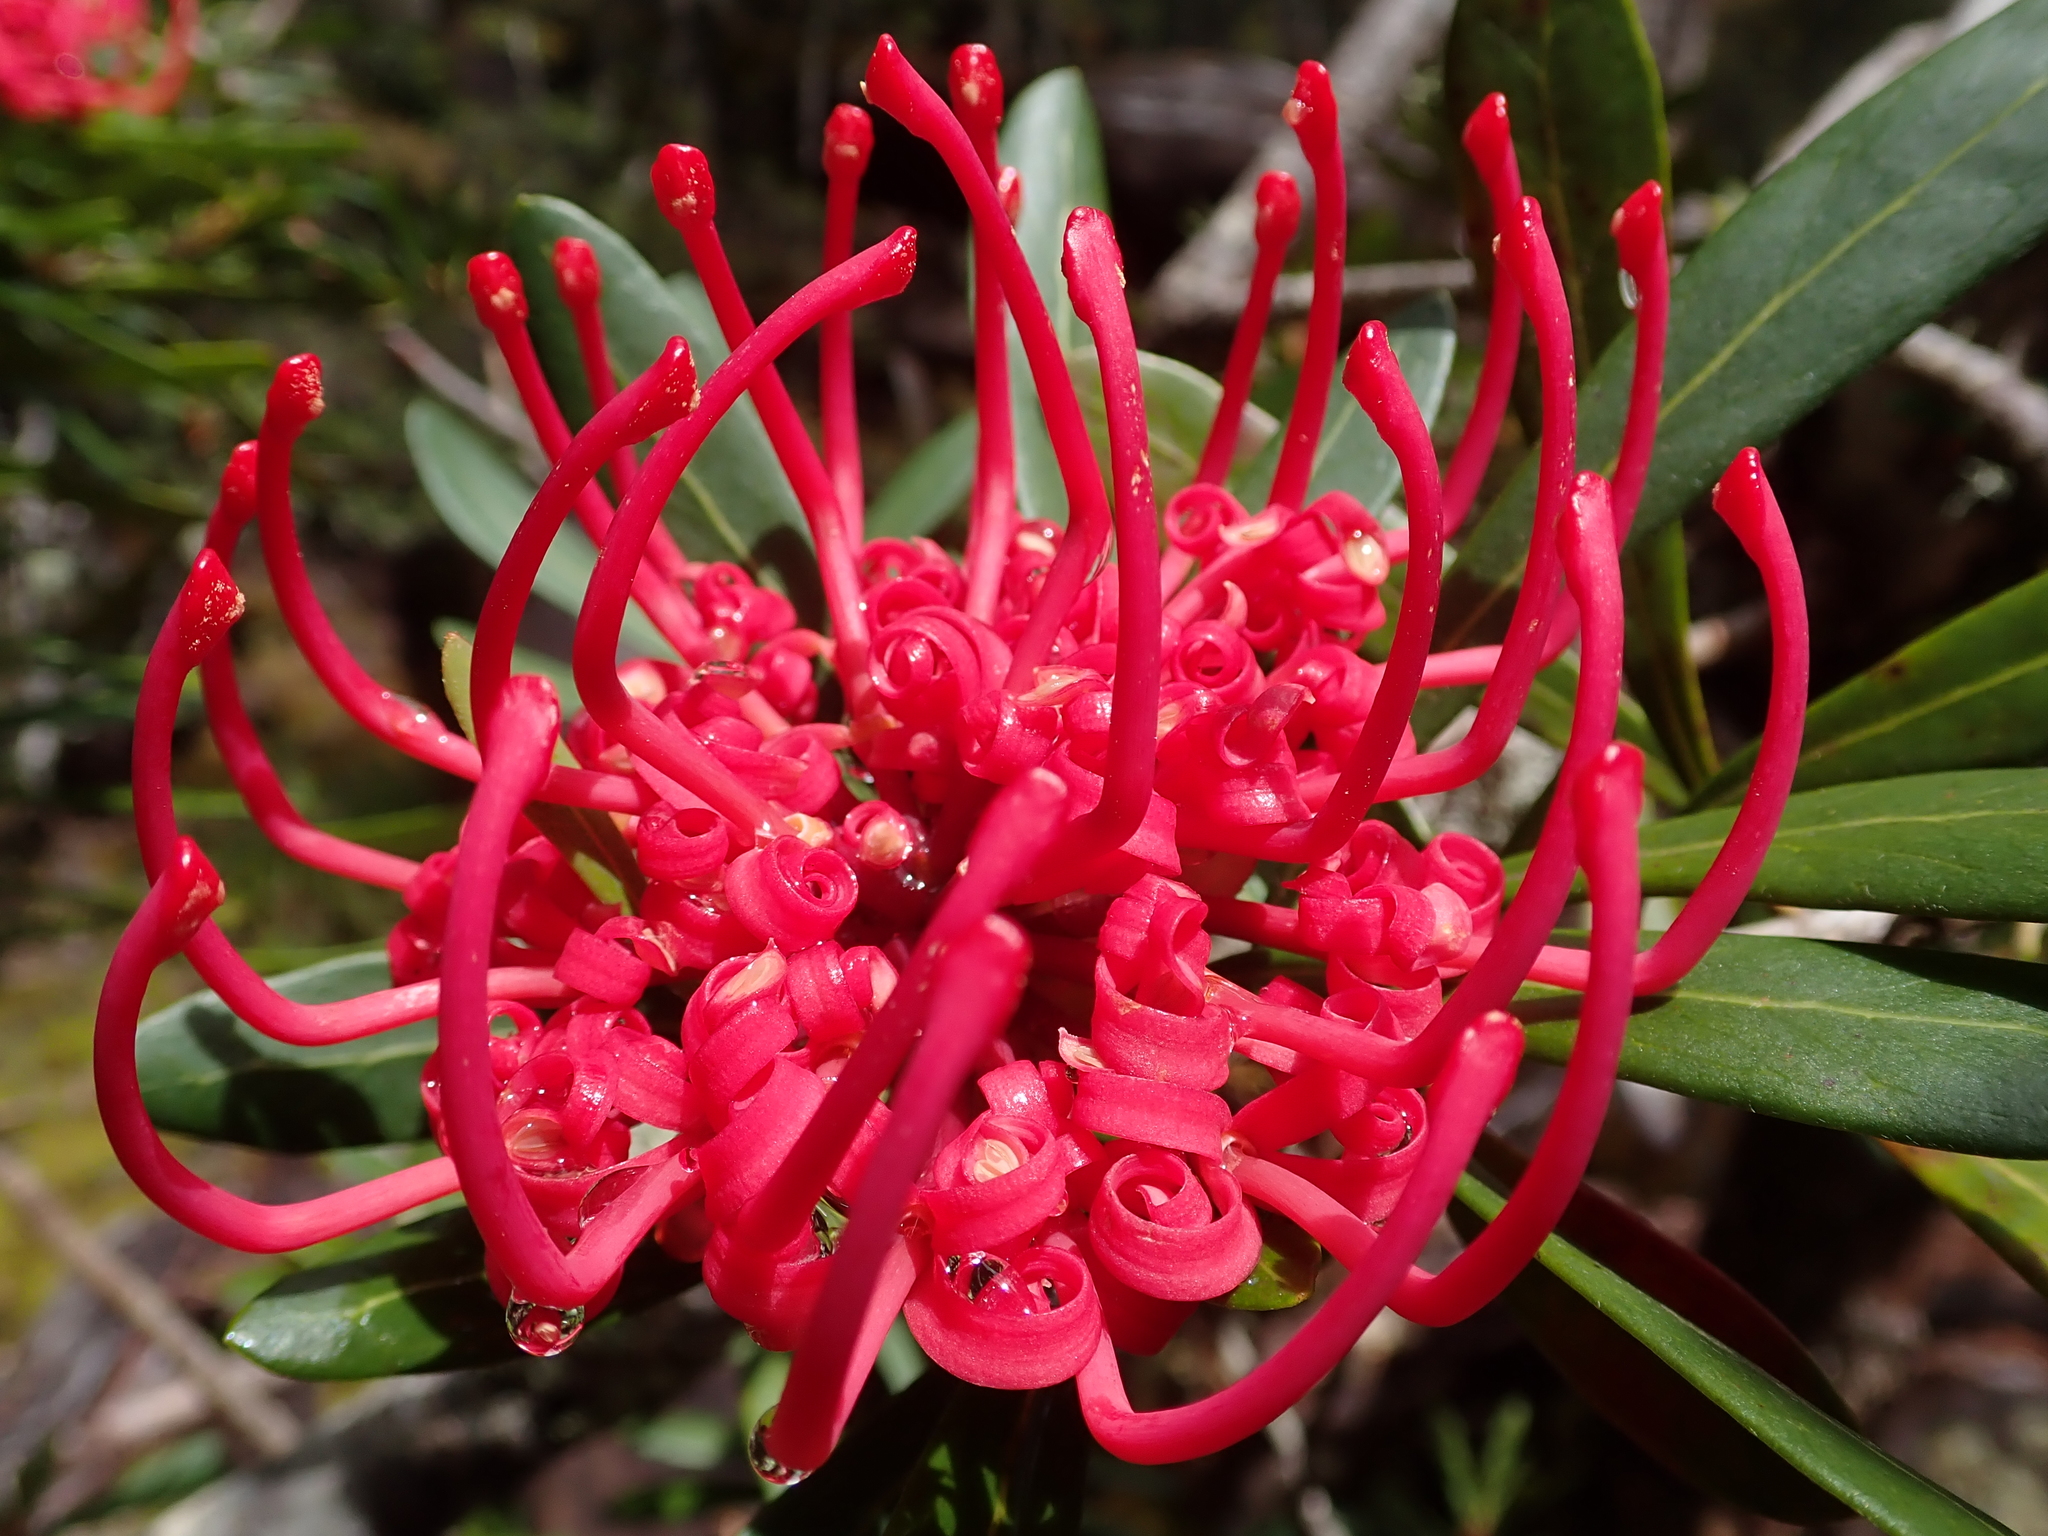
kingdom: Plantae
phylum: Tracheophyta
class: Magnoliopsida
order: Proteales
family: Proteaceae
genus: Telopea
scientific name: Telopea truncata
